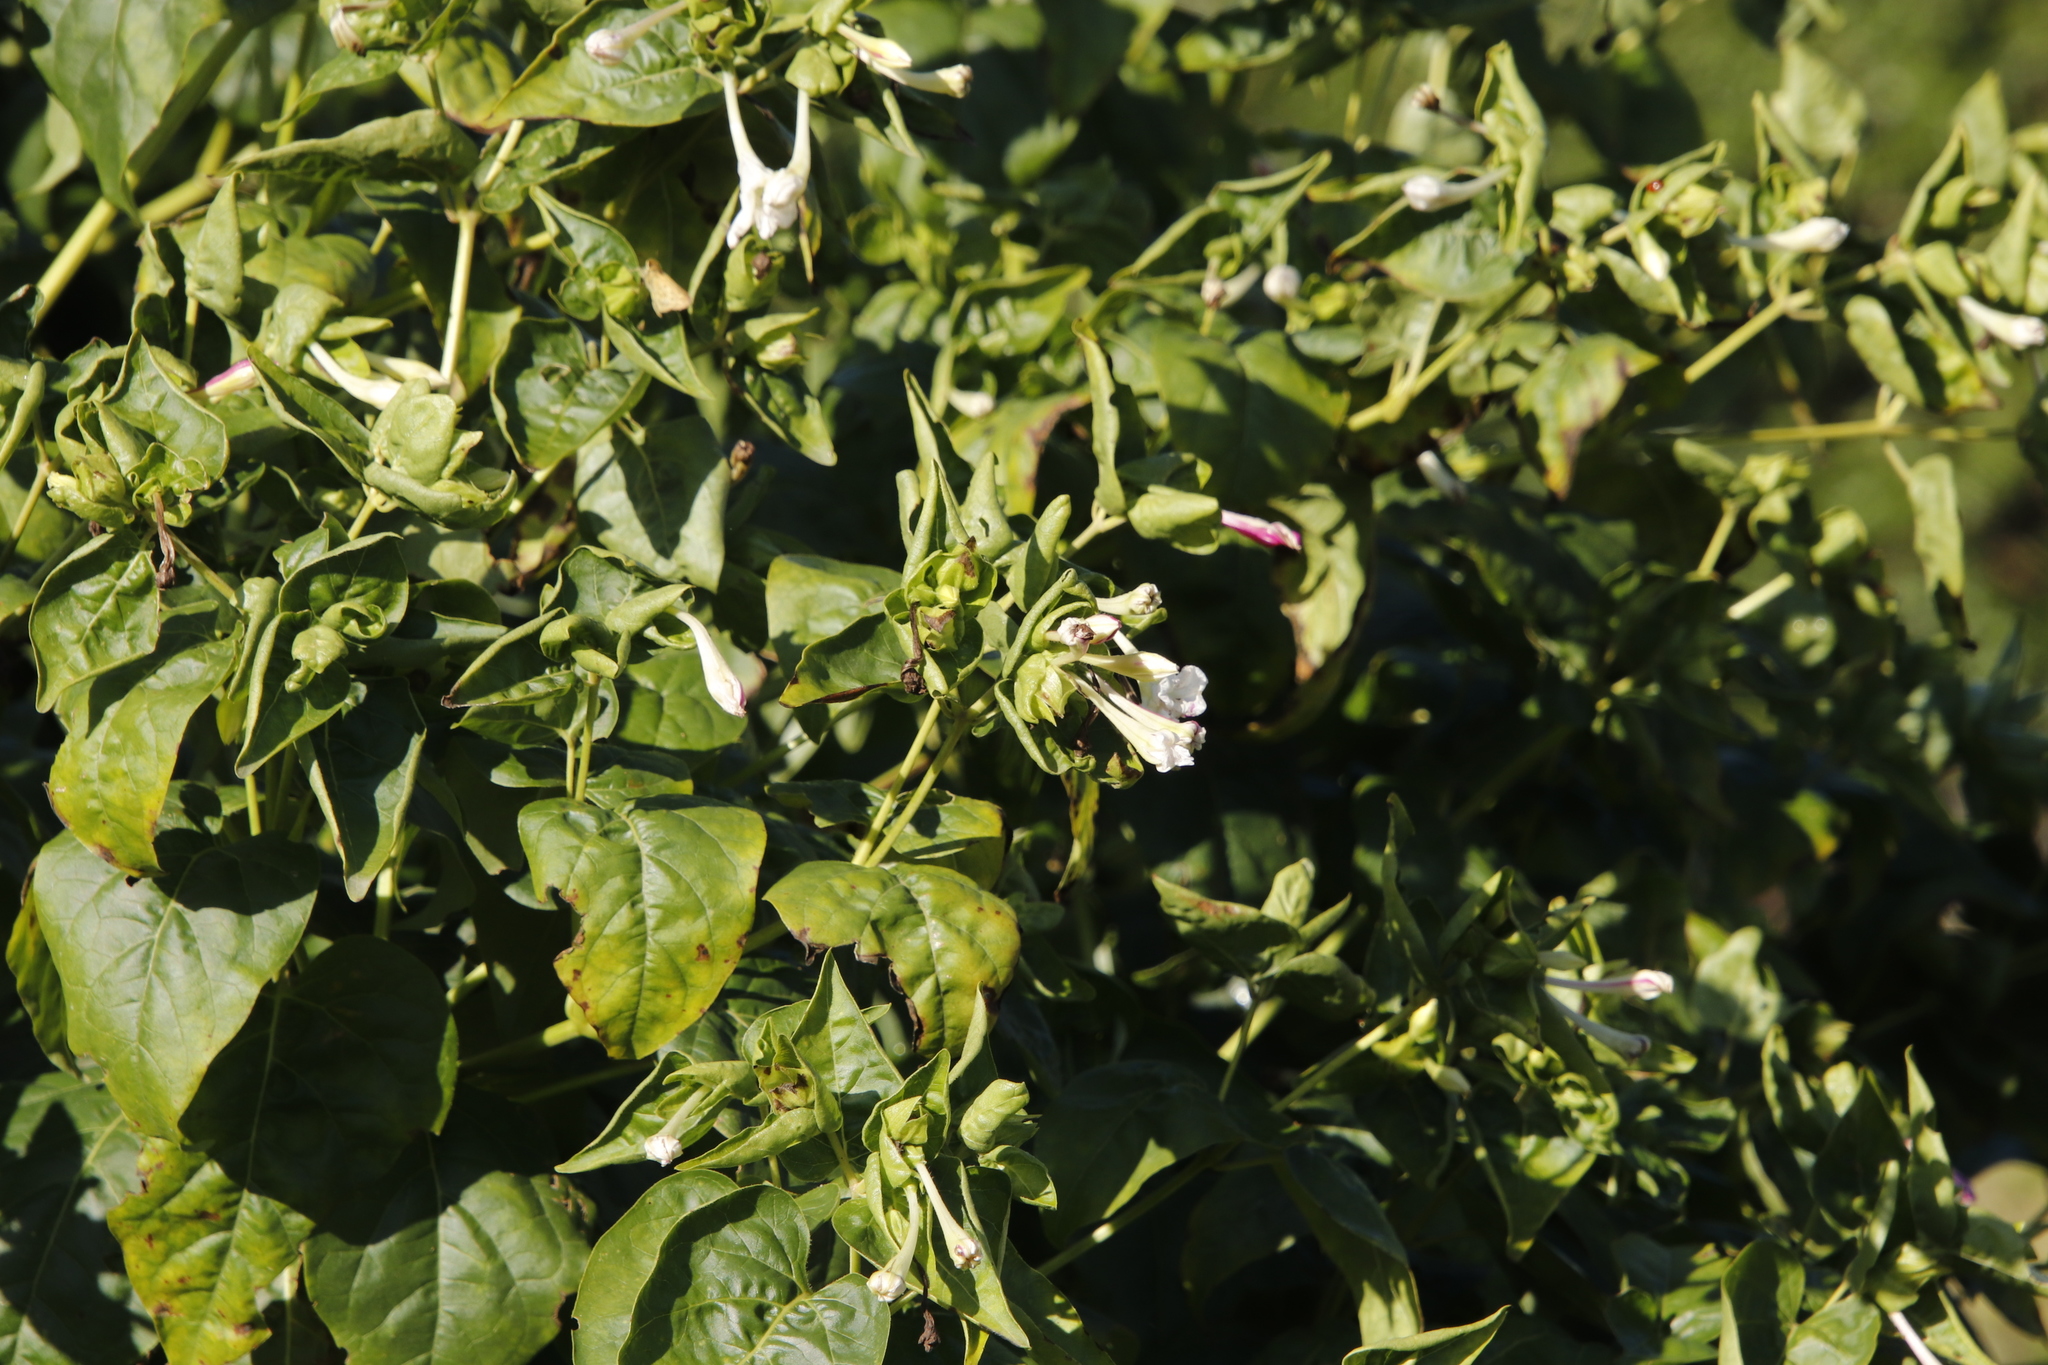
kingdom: Plantae
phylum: Tracheophyta
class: Magnoliopsida
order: Caryophyllales
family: Nyctaginaceae
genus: Mirabilis
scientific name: Mirabilis jalapa
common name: Marvel-of-peru
